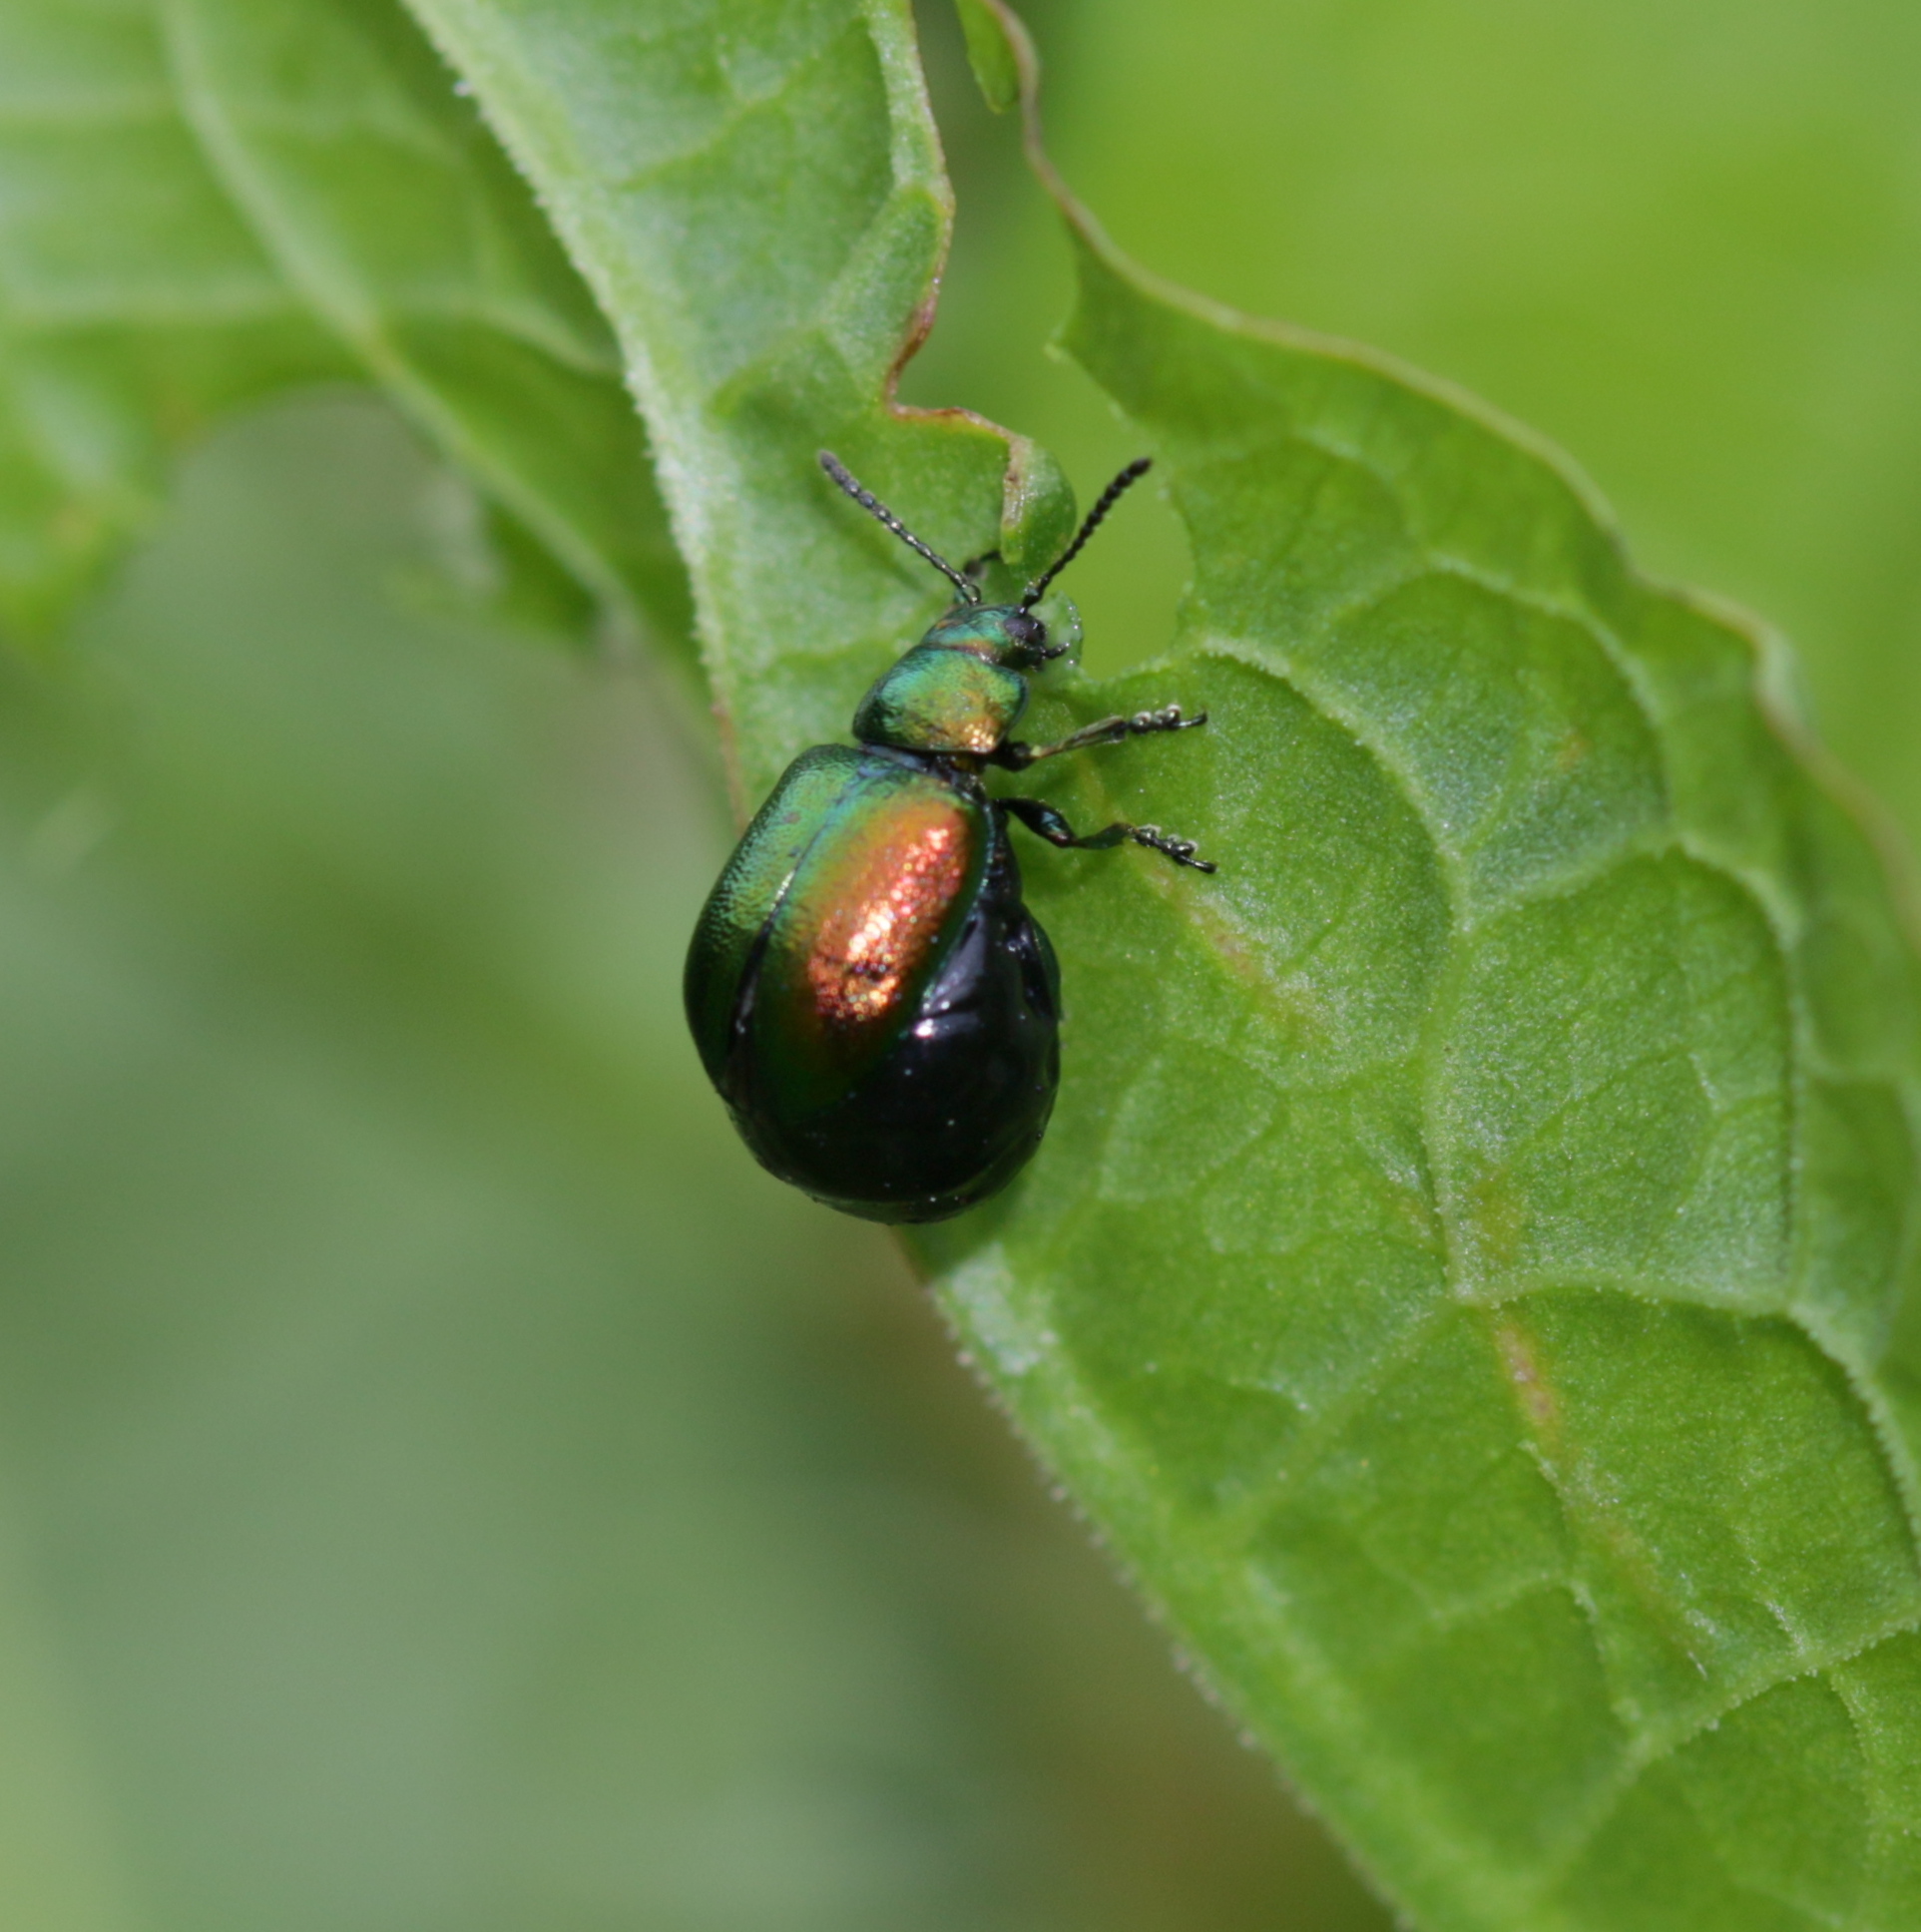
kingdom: Animalia
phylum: Arthropoda
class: Insecta
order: Coleoptera
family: Chrysomelidae
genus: Gastrophysa
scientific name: Gastrophysa viridula
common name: Green dock beetle
